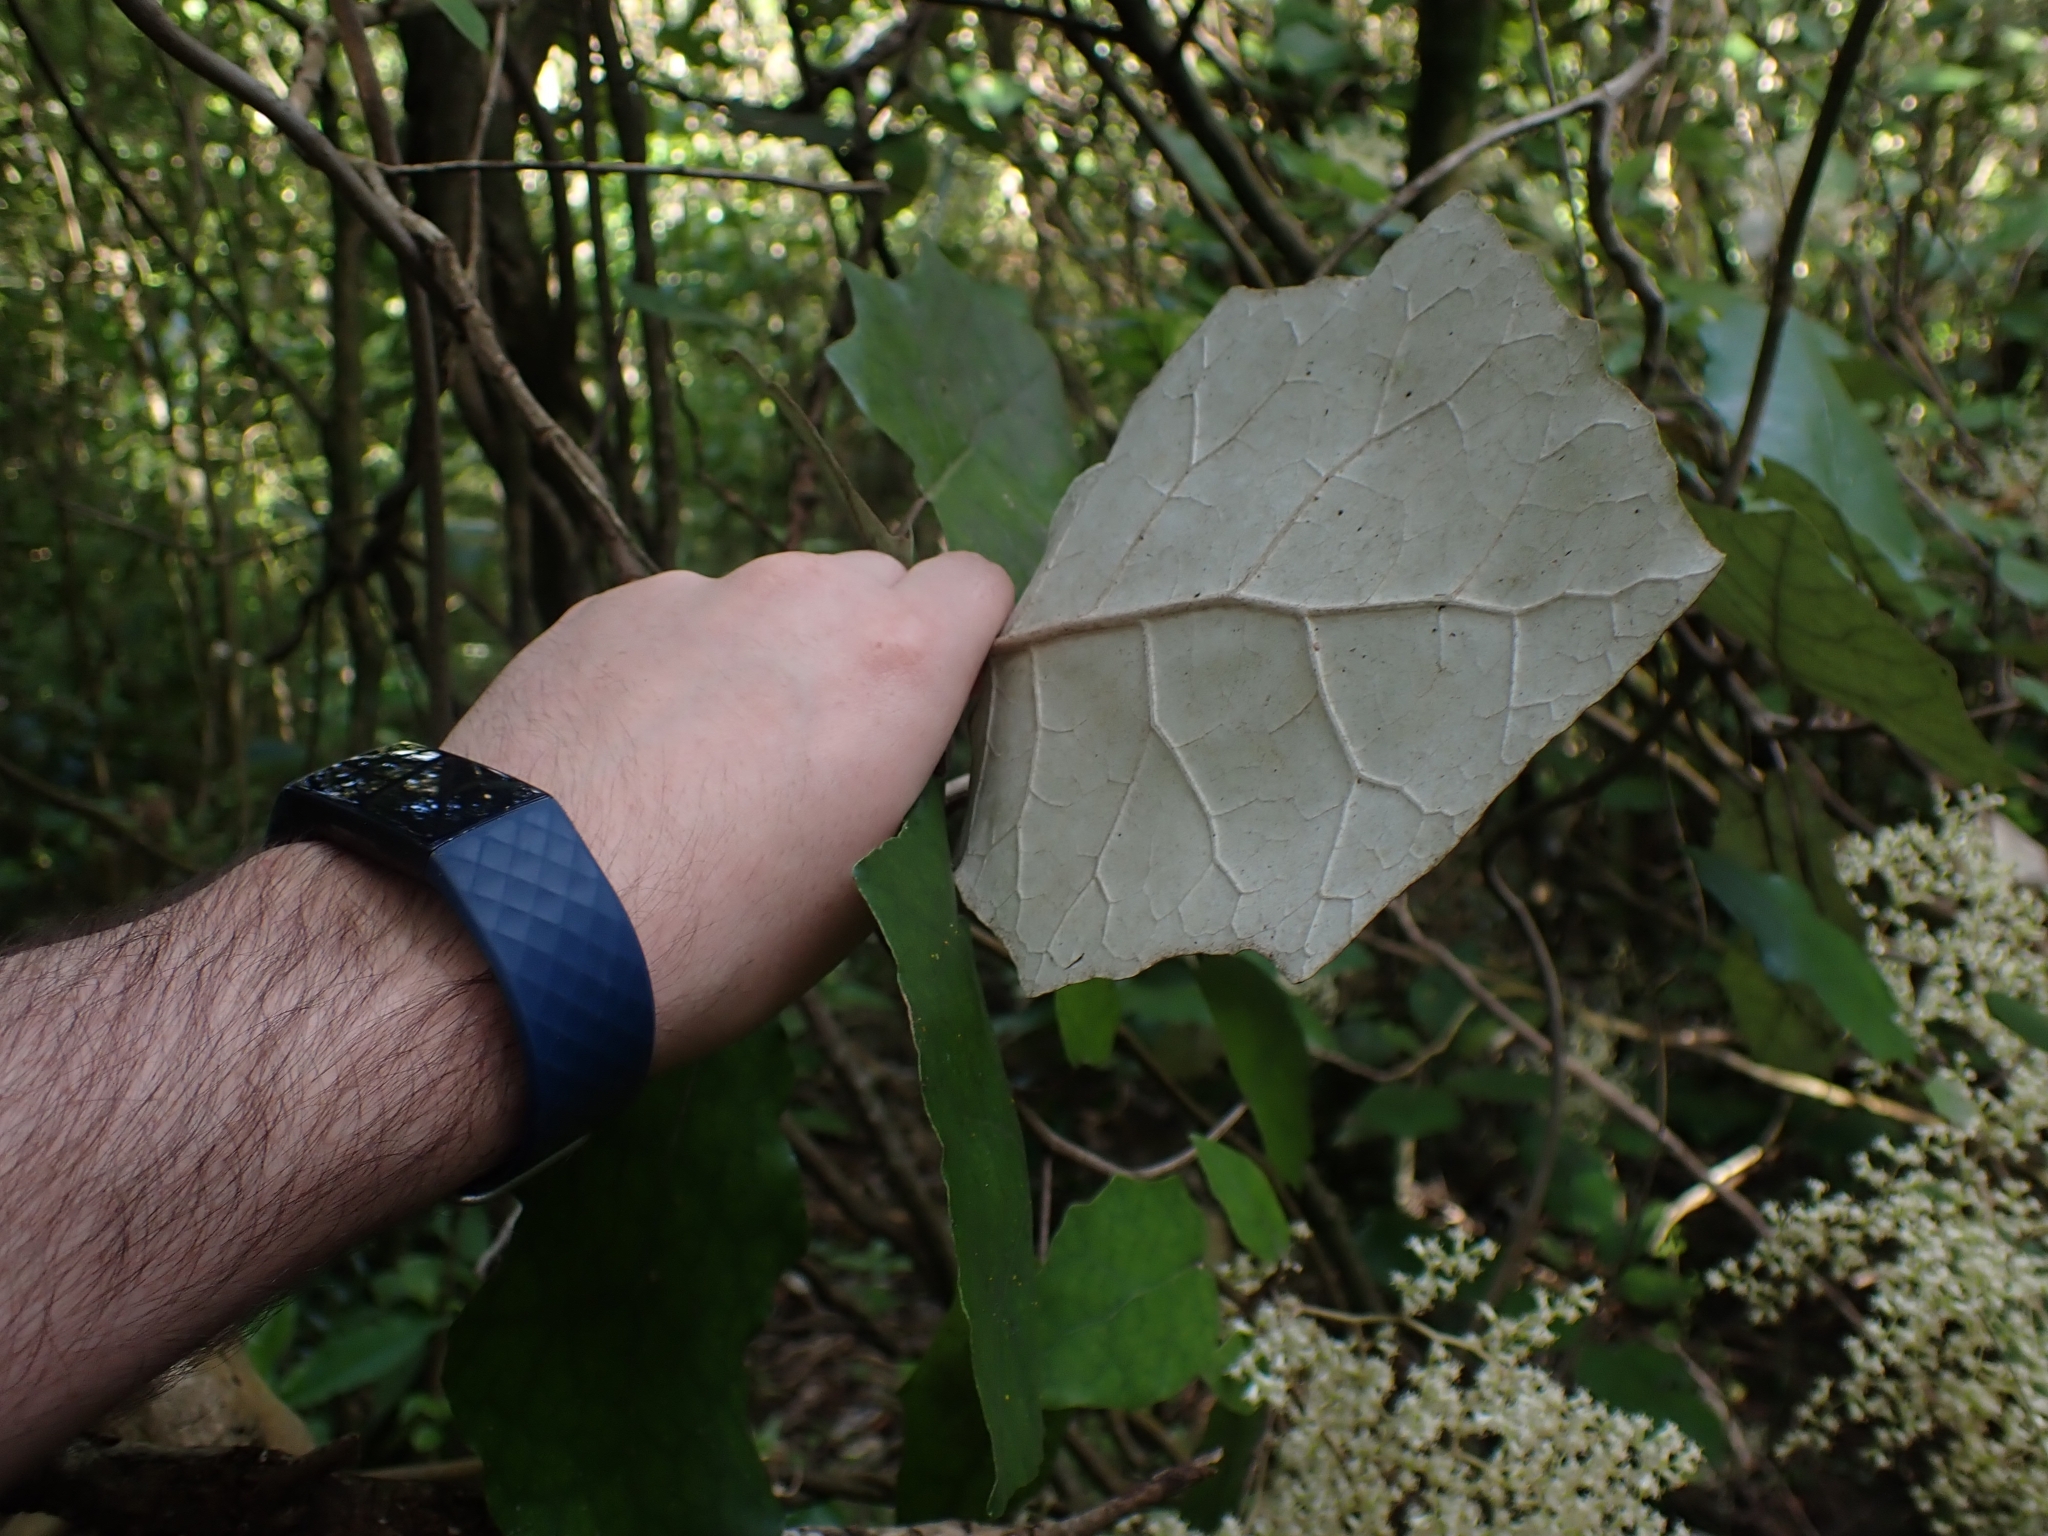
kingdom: Plantae
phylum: Tracheophyta
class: Magnoliopsida
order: Asterales
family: Asteraceae
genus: Brachyglottis
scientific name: Brachyglottis repanda
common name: Hedge ragwort
